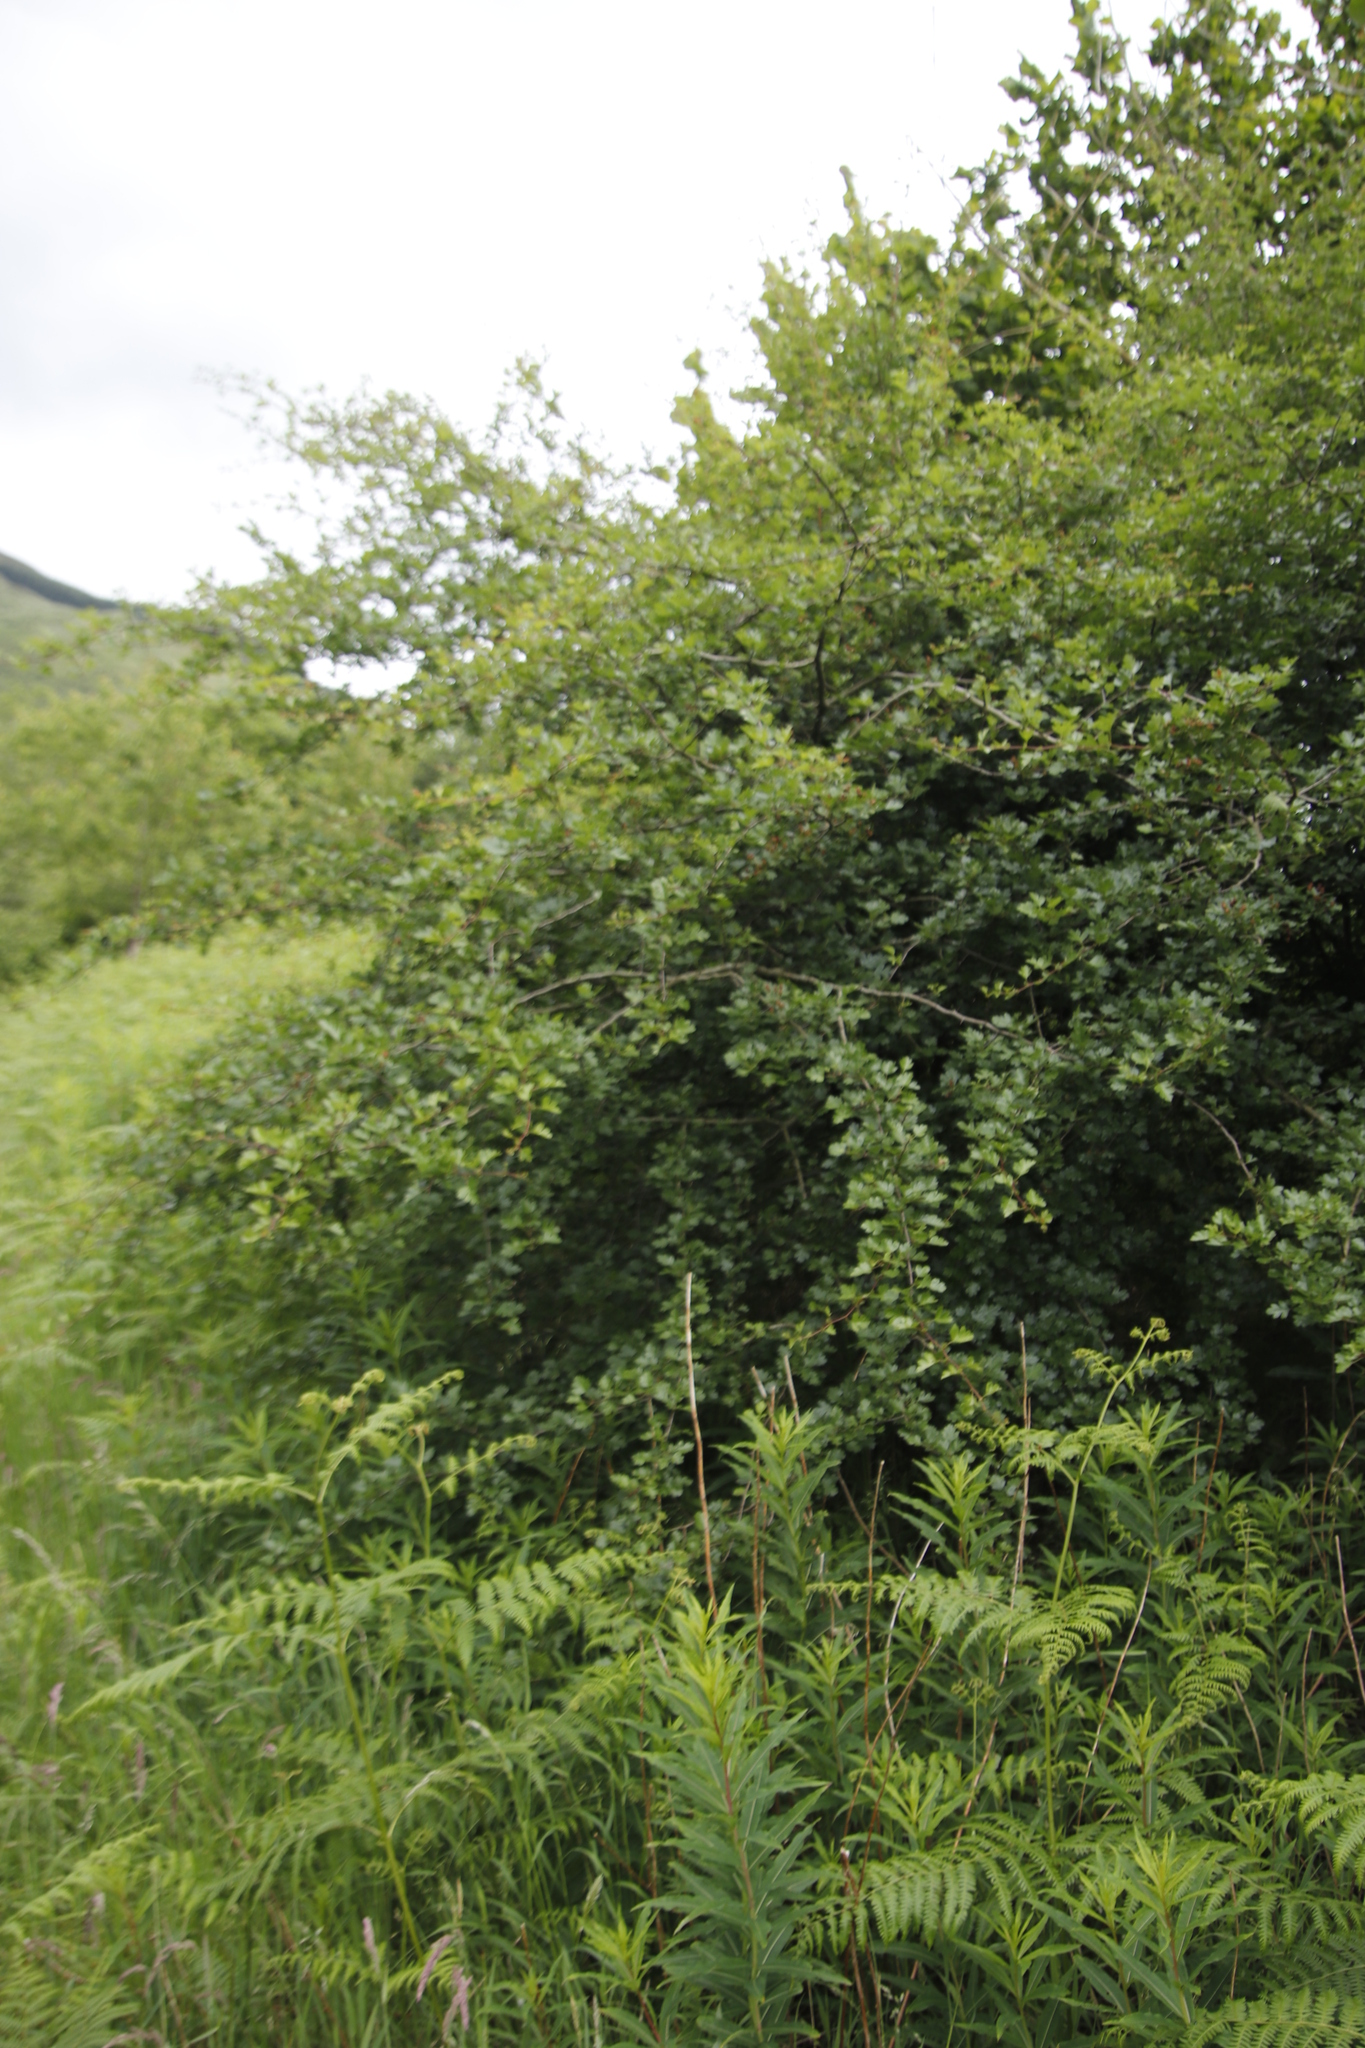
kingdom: Plantae
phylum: Tracheophyta
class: Magnoliopsida
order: Rosales
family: Rosaceae
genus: Crataegus
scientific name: Crataegus monogyna
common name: Hawthorn
